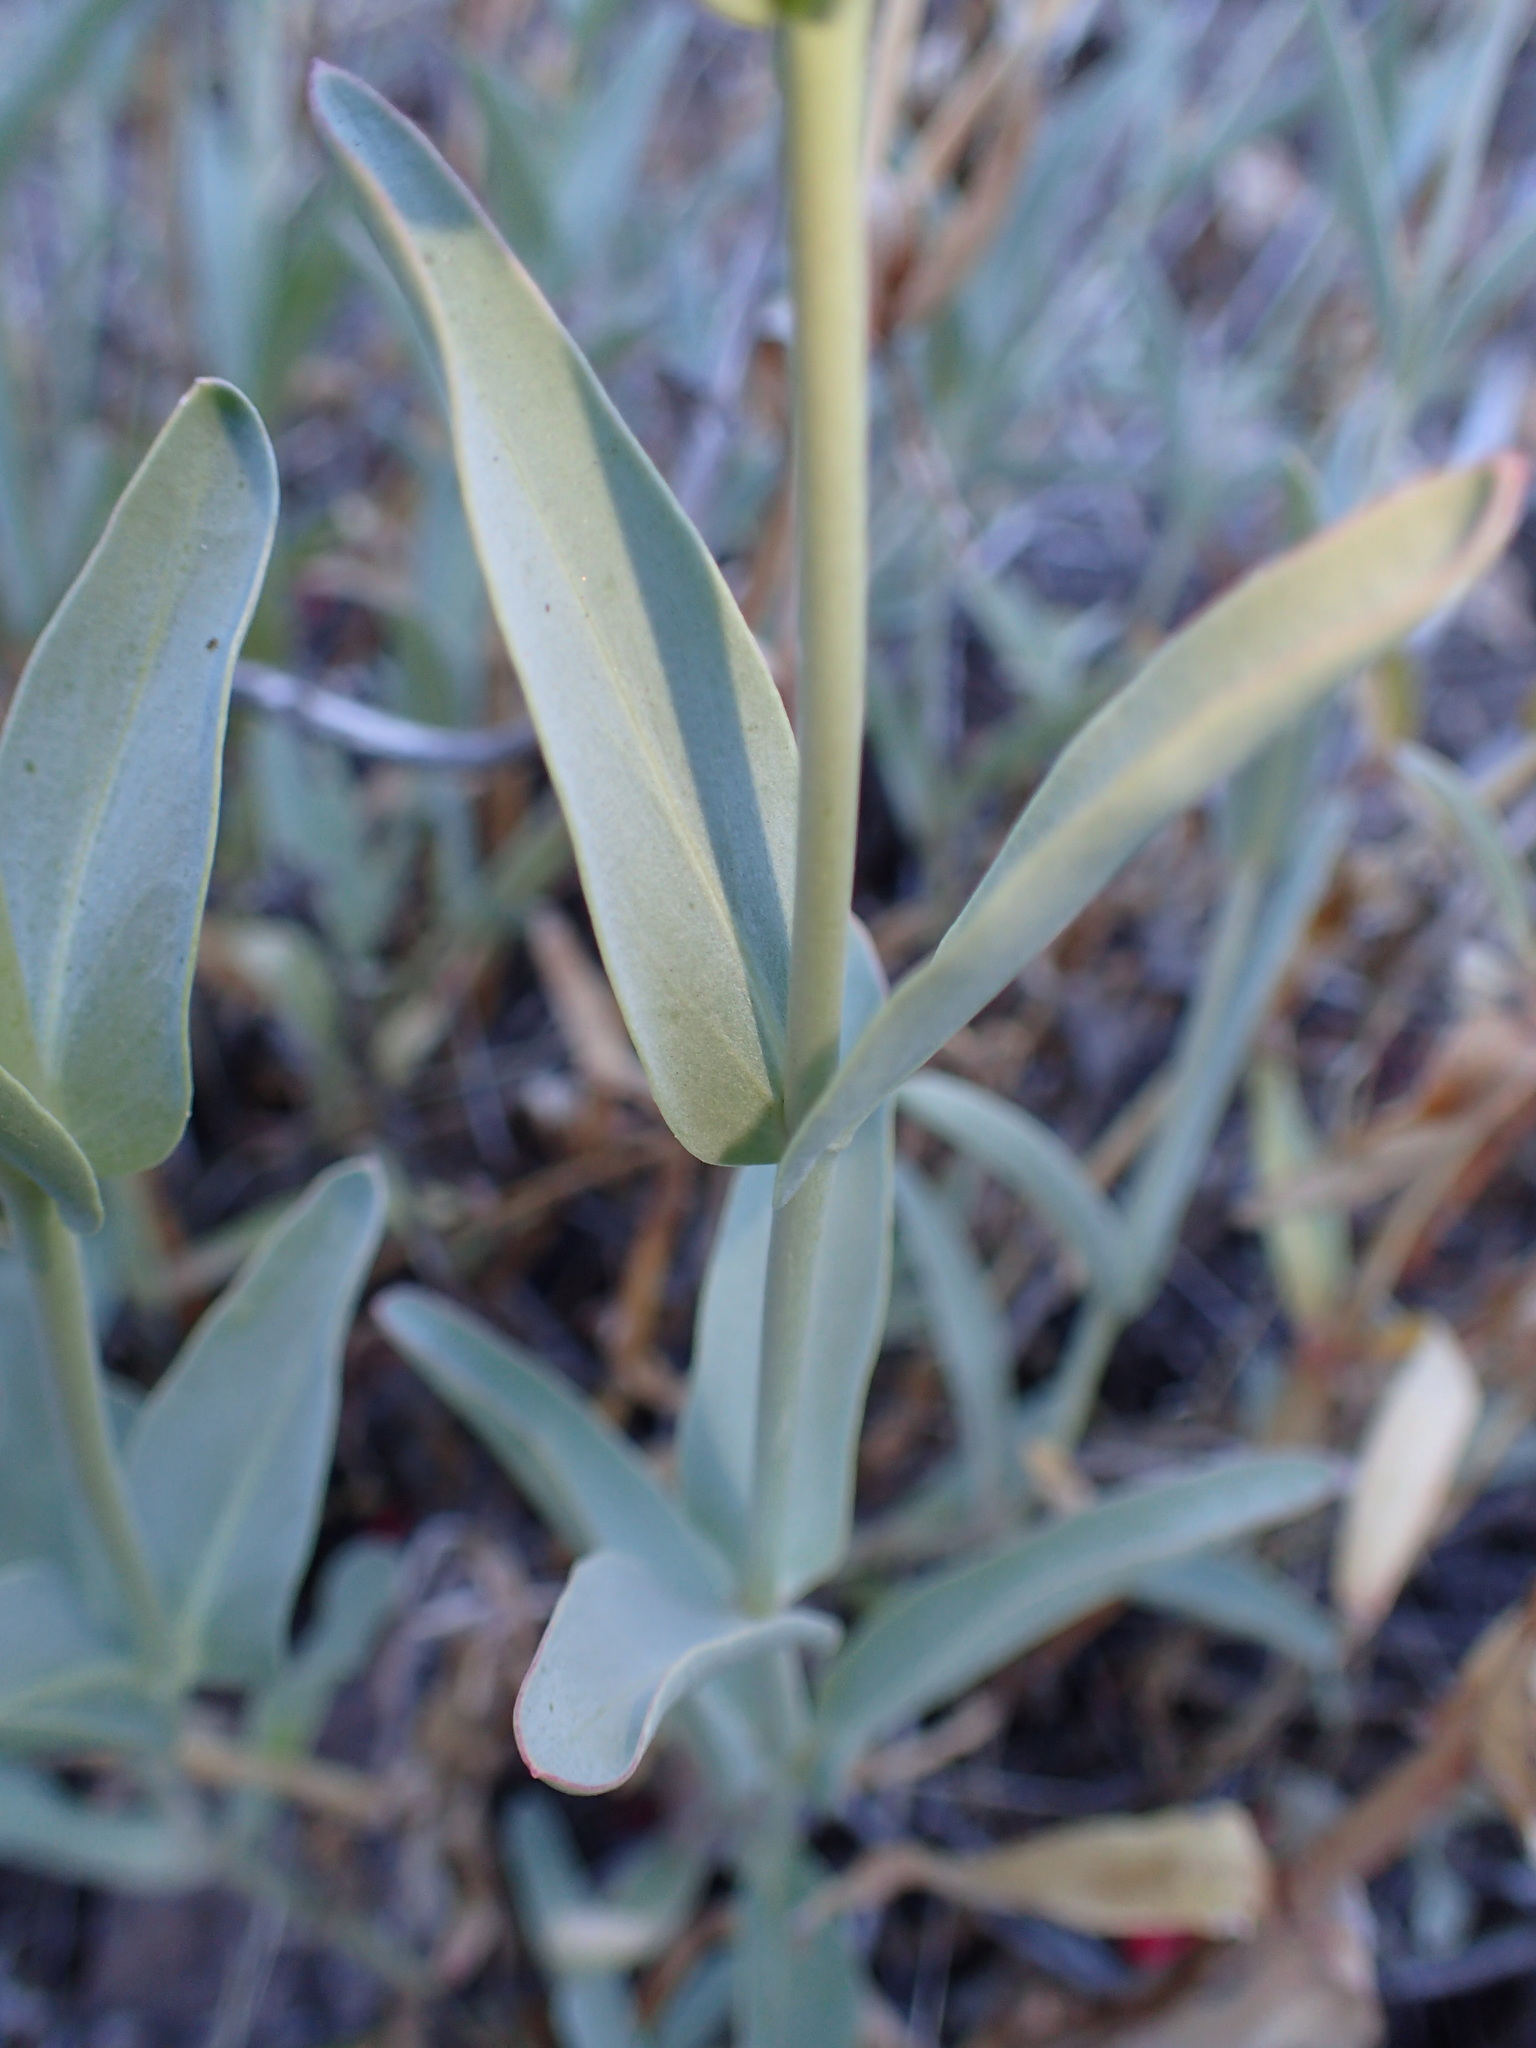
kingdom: Plantae
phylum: Tracheophyta
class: Magnoliopsida
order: Lamiales
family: Plantaginaceae
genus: Penstemon
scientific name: Penstemon centranthifolius
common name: Scarlet bugler
